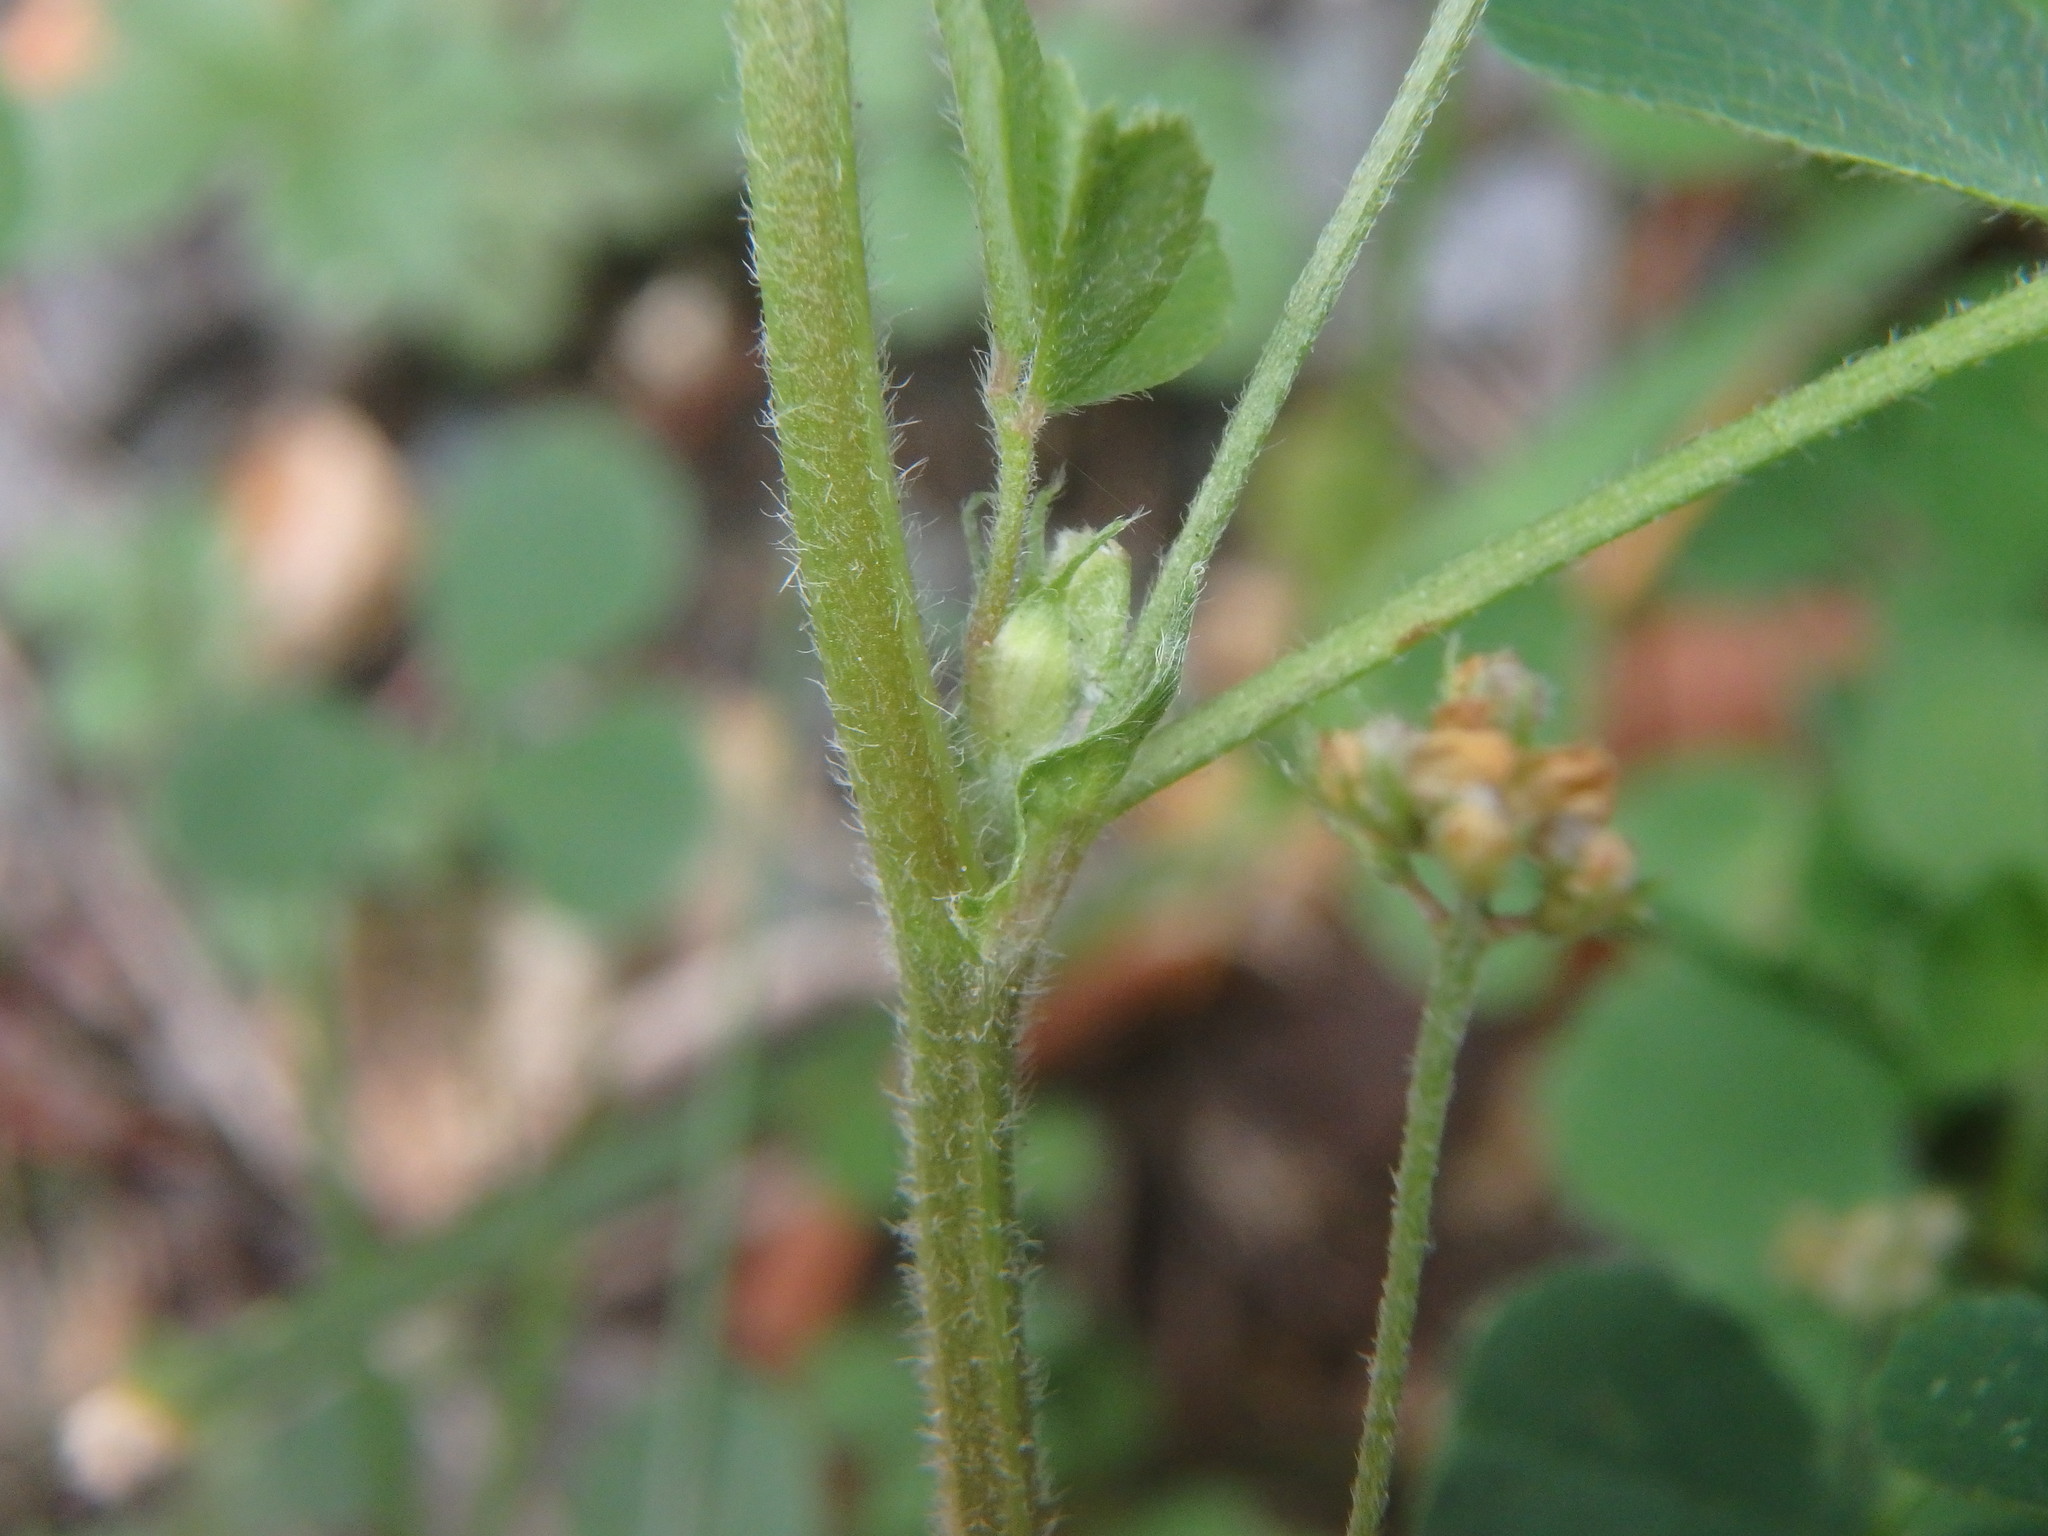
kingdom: Plantae
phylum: Tracheophyta
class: Magnoliopsida
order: Fabales
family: Fabaceae
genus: Medicago
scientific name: Medicago lupulina
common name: Black medick
